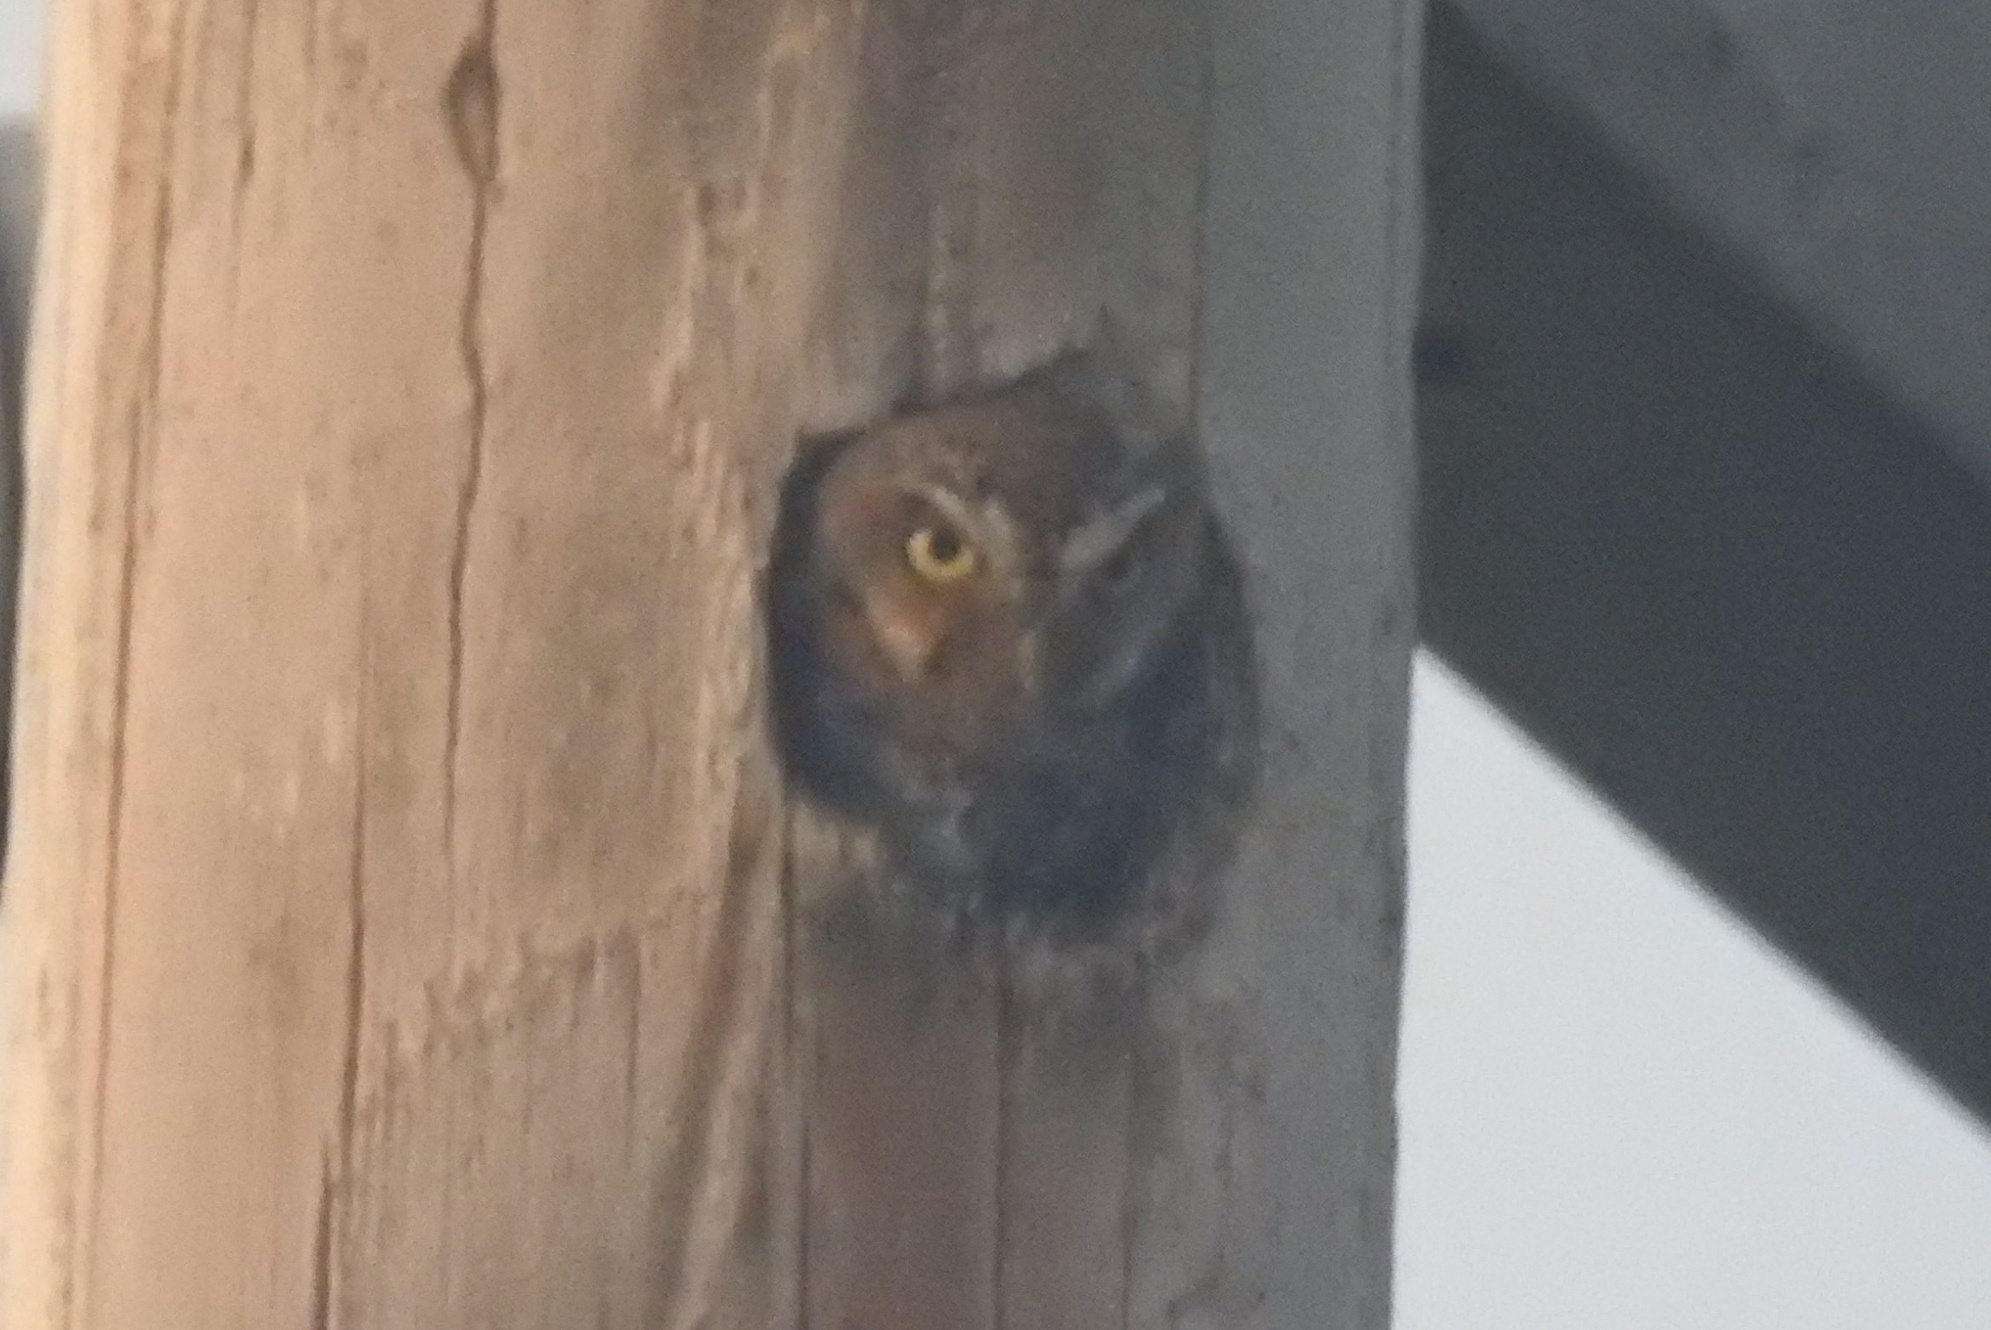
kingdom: Animalia
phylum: Chordata
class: Aves
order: Strigiformes
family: Strigidae
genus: Micrathene
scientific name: Micrathene whitneyi
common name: Elf owl
